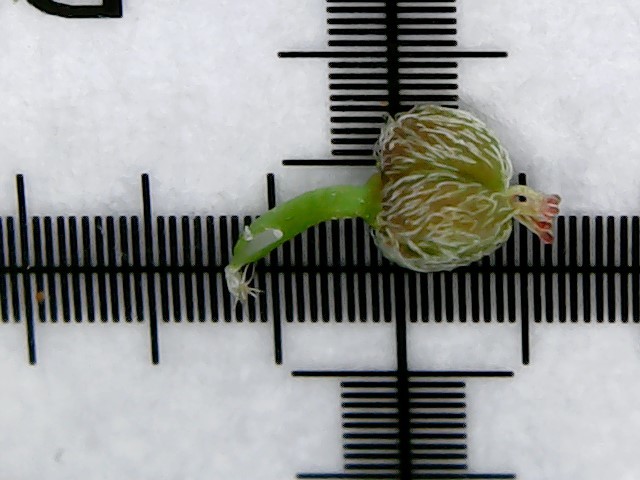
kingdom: Plantae
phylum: Tracheophyta
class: Magnoliopsida
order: Malpighiales
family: Euphorbiaceae
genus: Euphorbia
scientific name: Euphorbia hirta
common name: Pillpod sandmat
